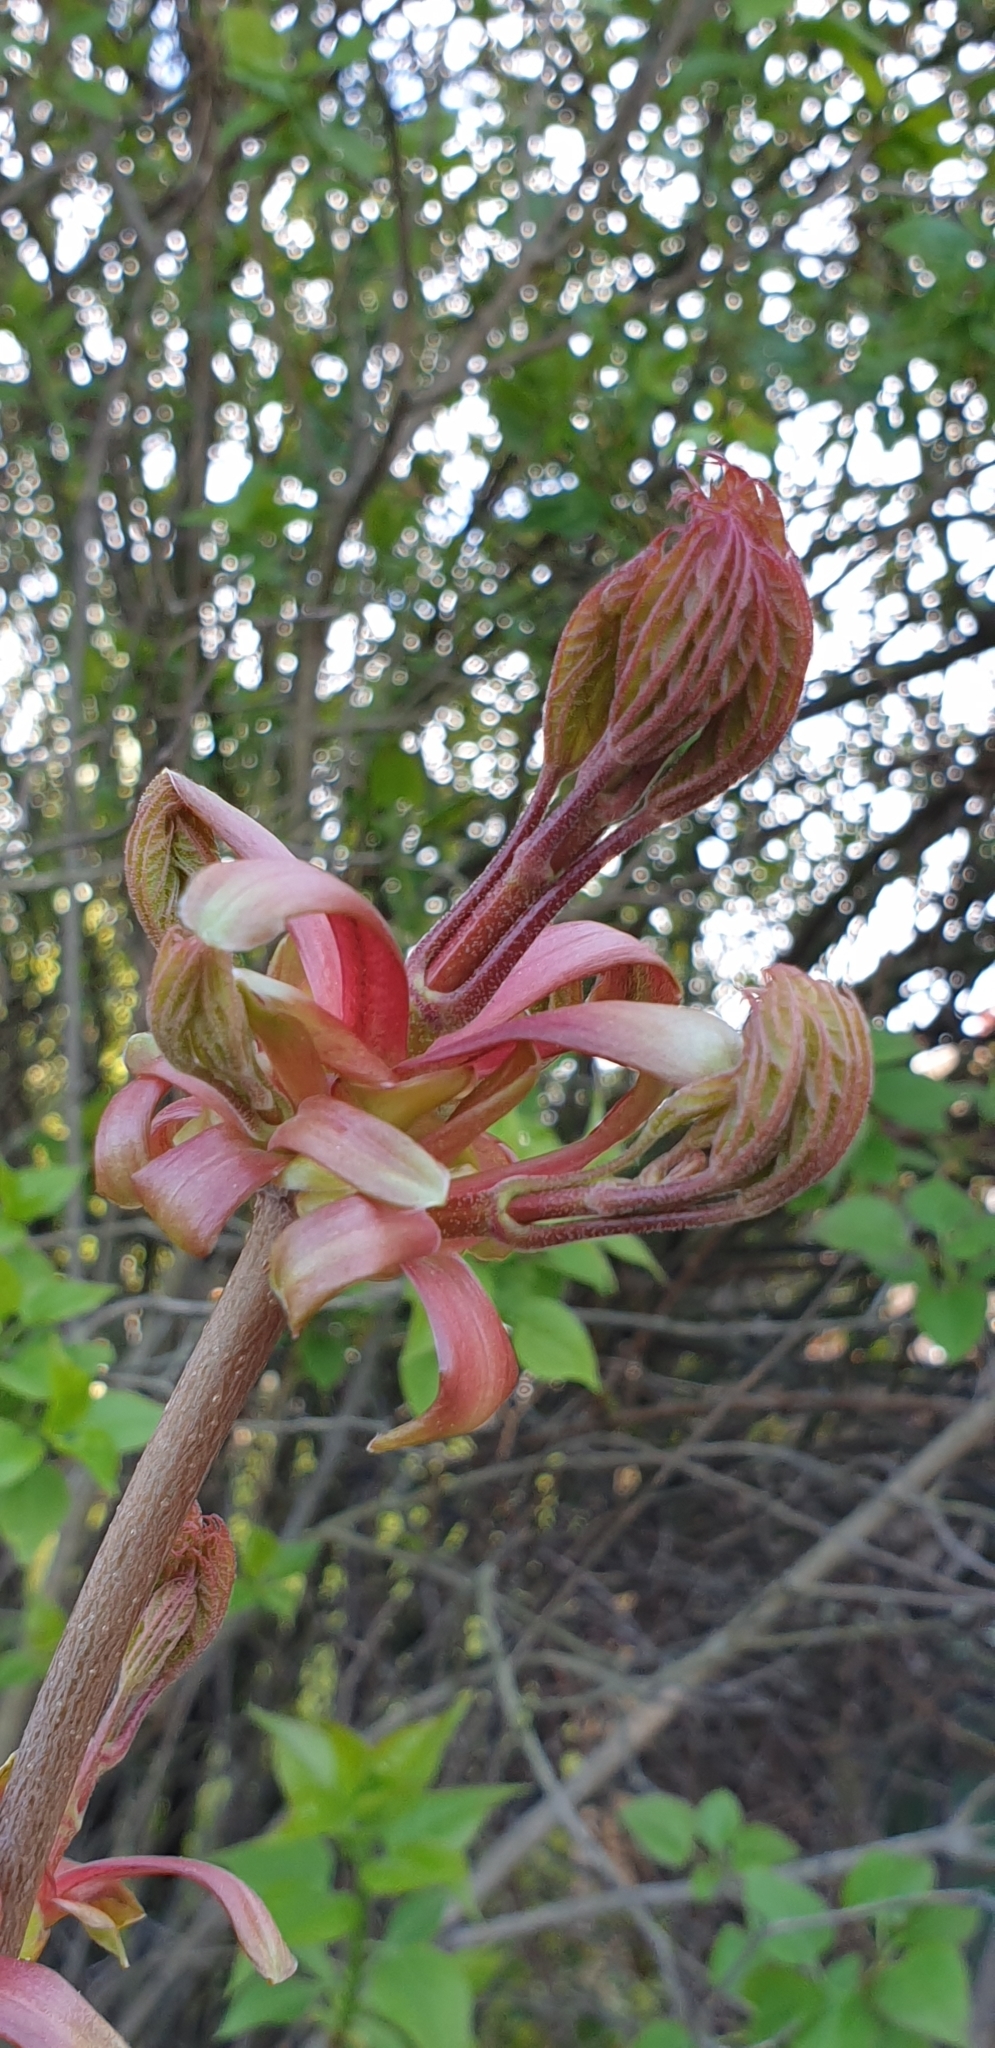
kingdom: Plantae
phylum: Tracheophyta
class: Magnoliopsida
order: Sapindales
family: Sapindaceae
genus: Acer
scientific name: Acer platanoides
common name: Norway maple
